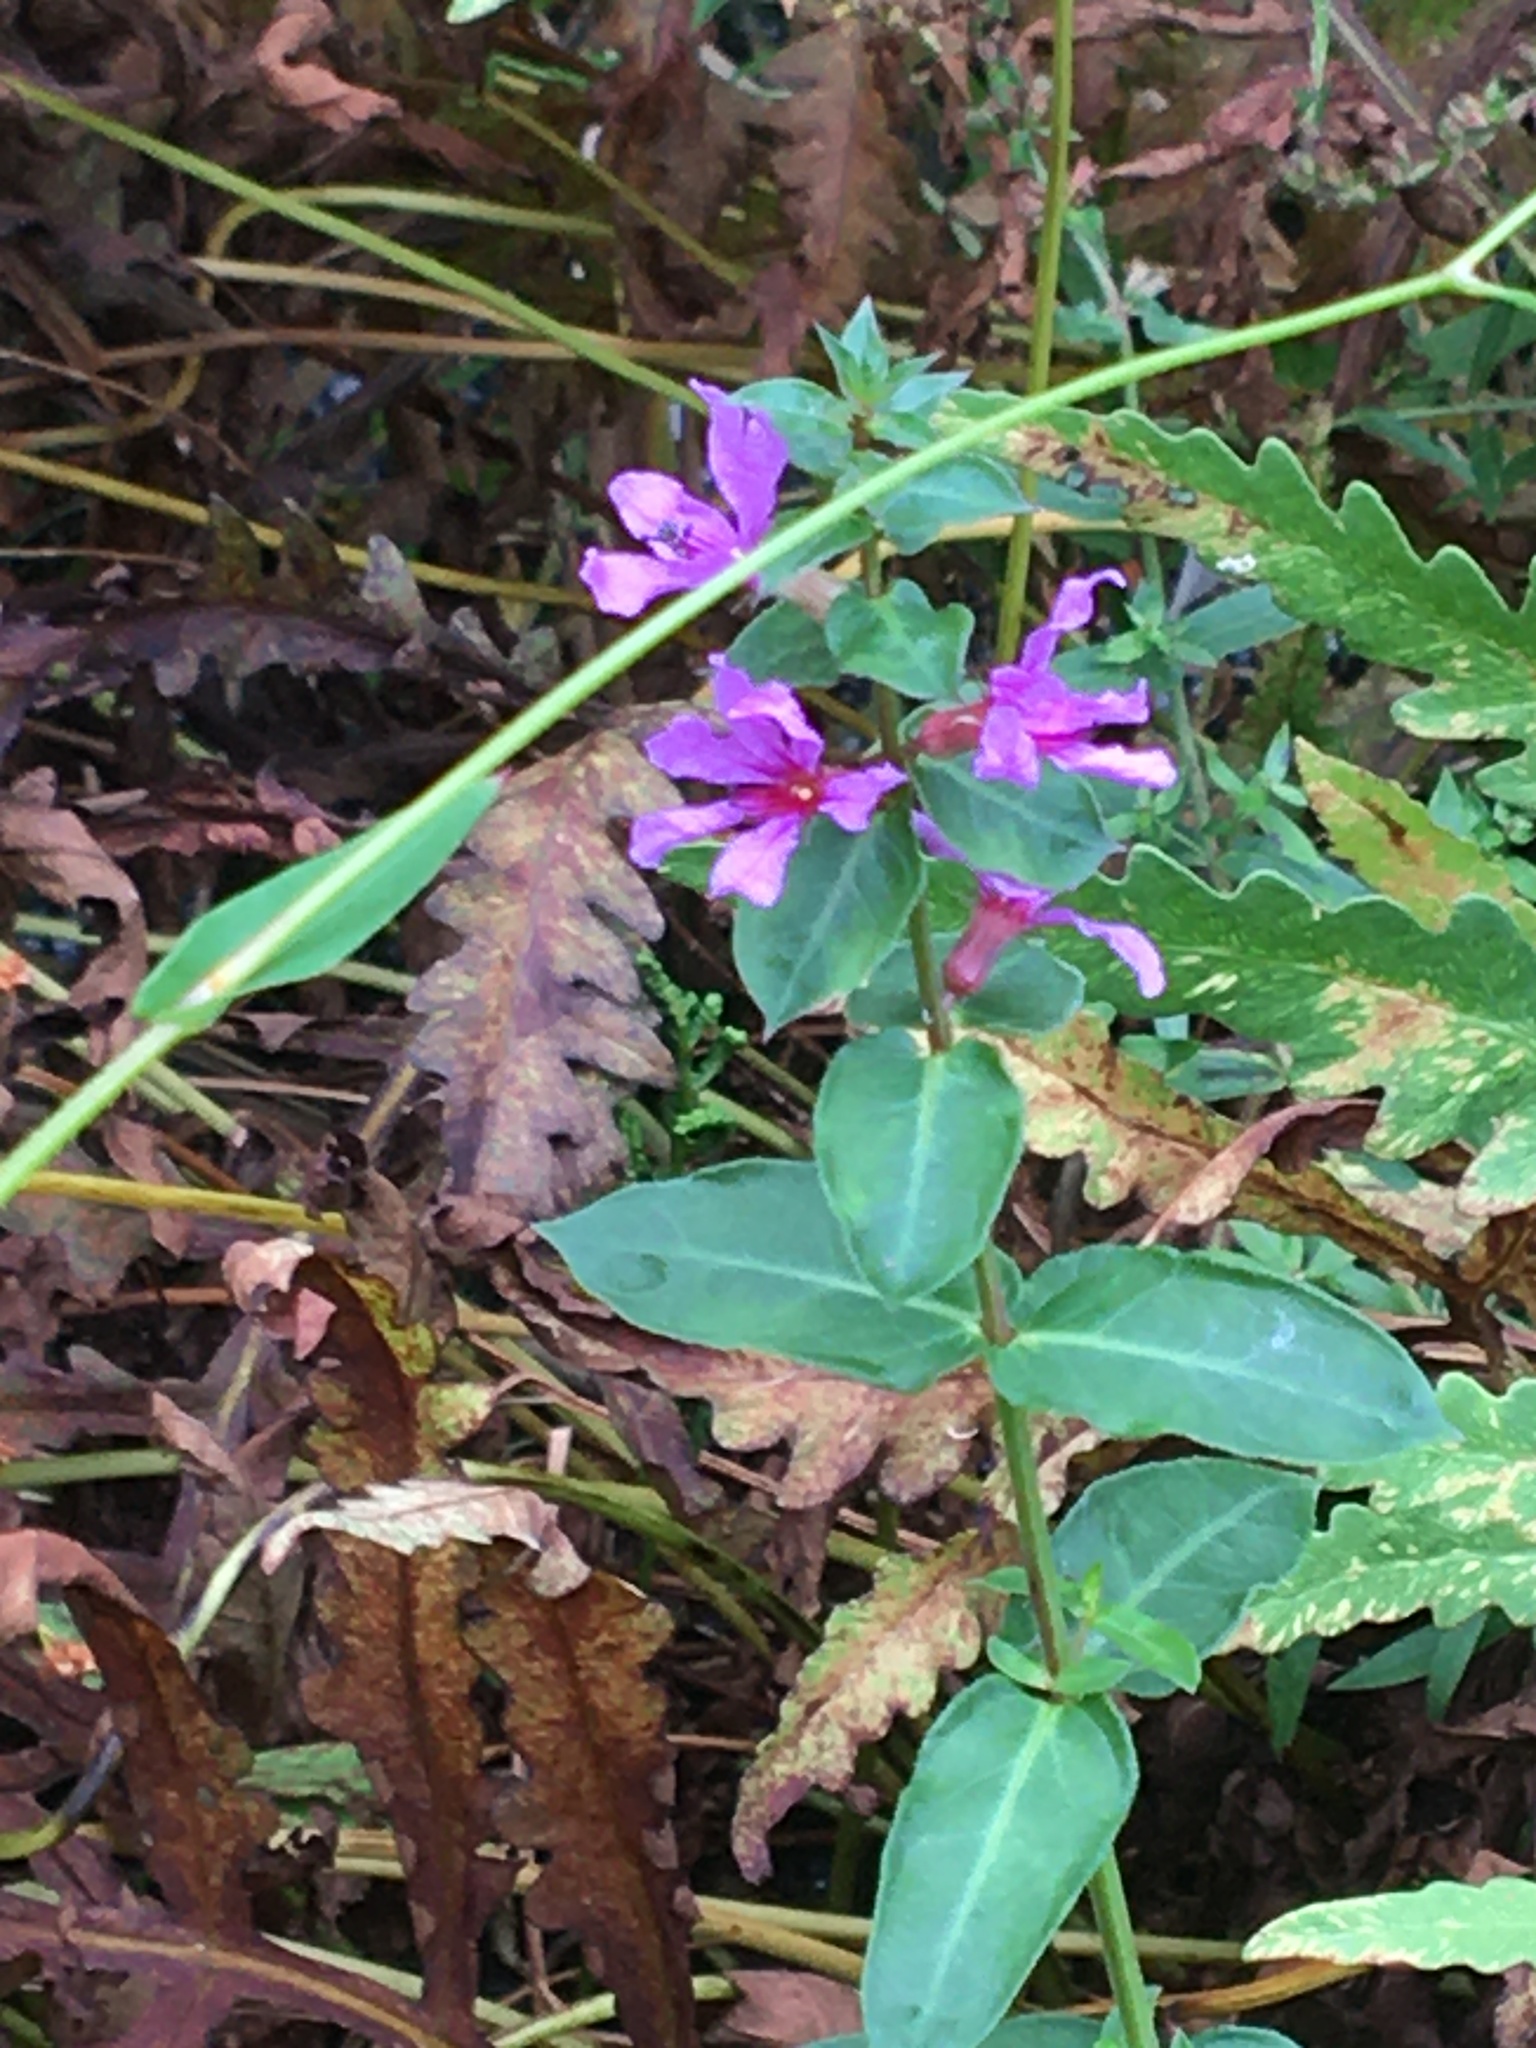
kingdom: Plantae
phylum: Tracheophyta
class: Magnoliopsida
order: Myrtales
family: Lythraceae
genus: Lythrum
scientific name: Lythrum salicaria
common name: Purple loosestrife
